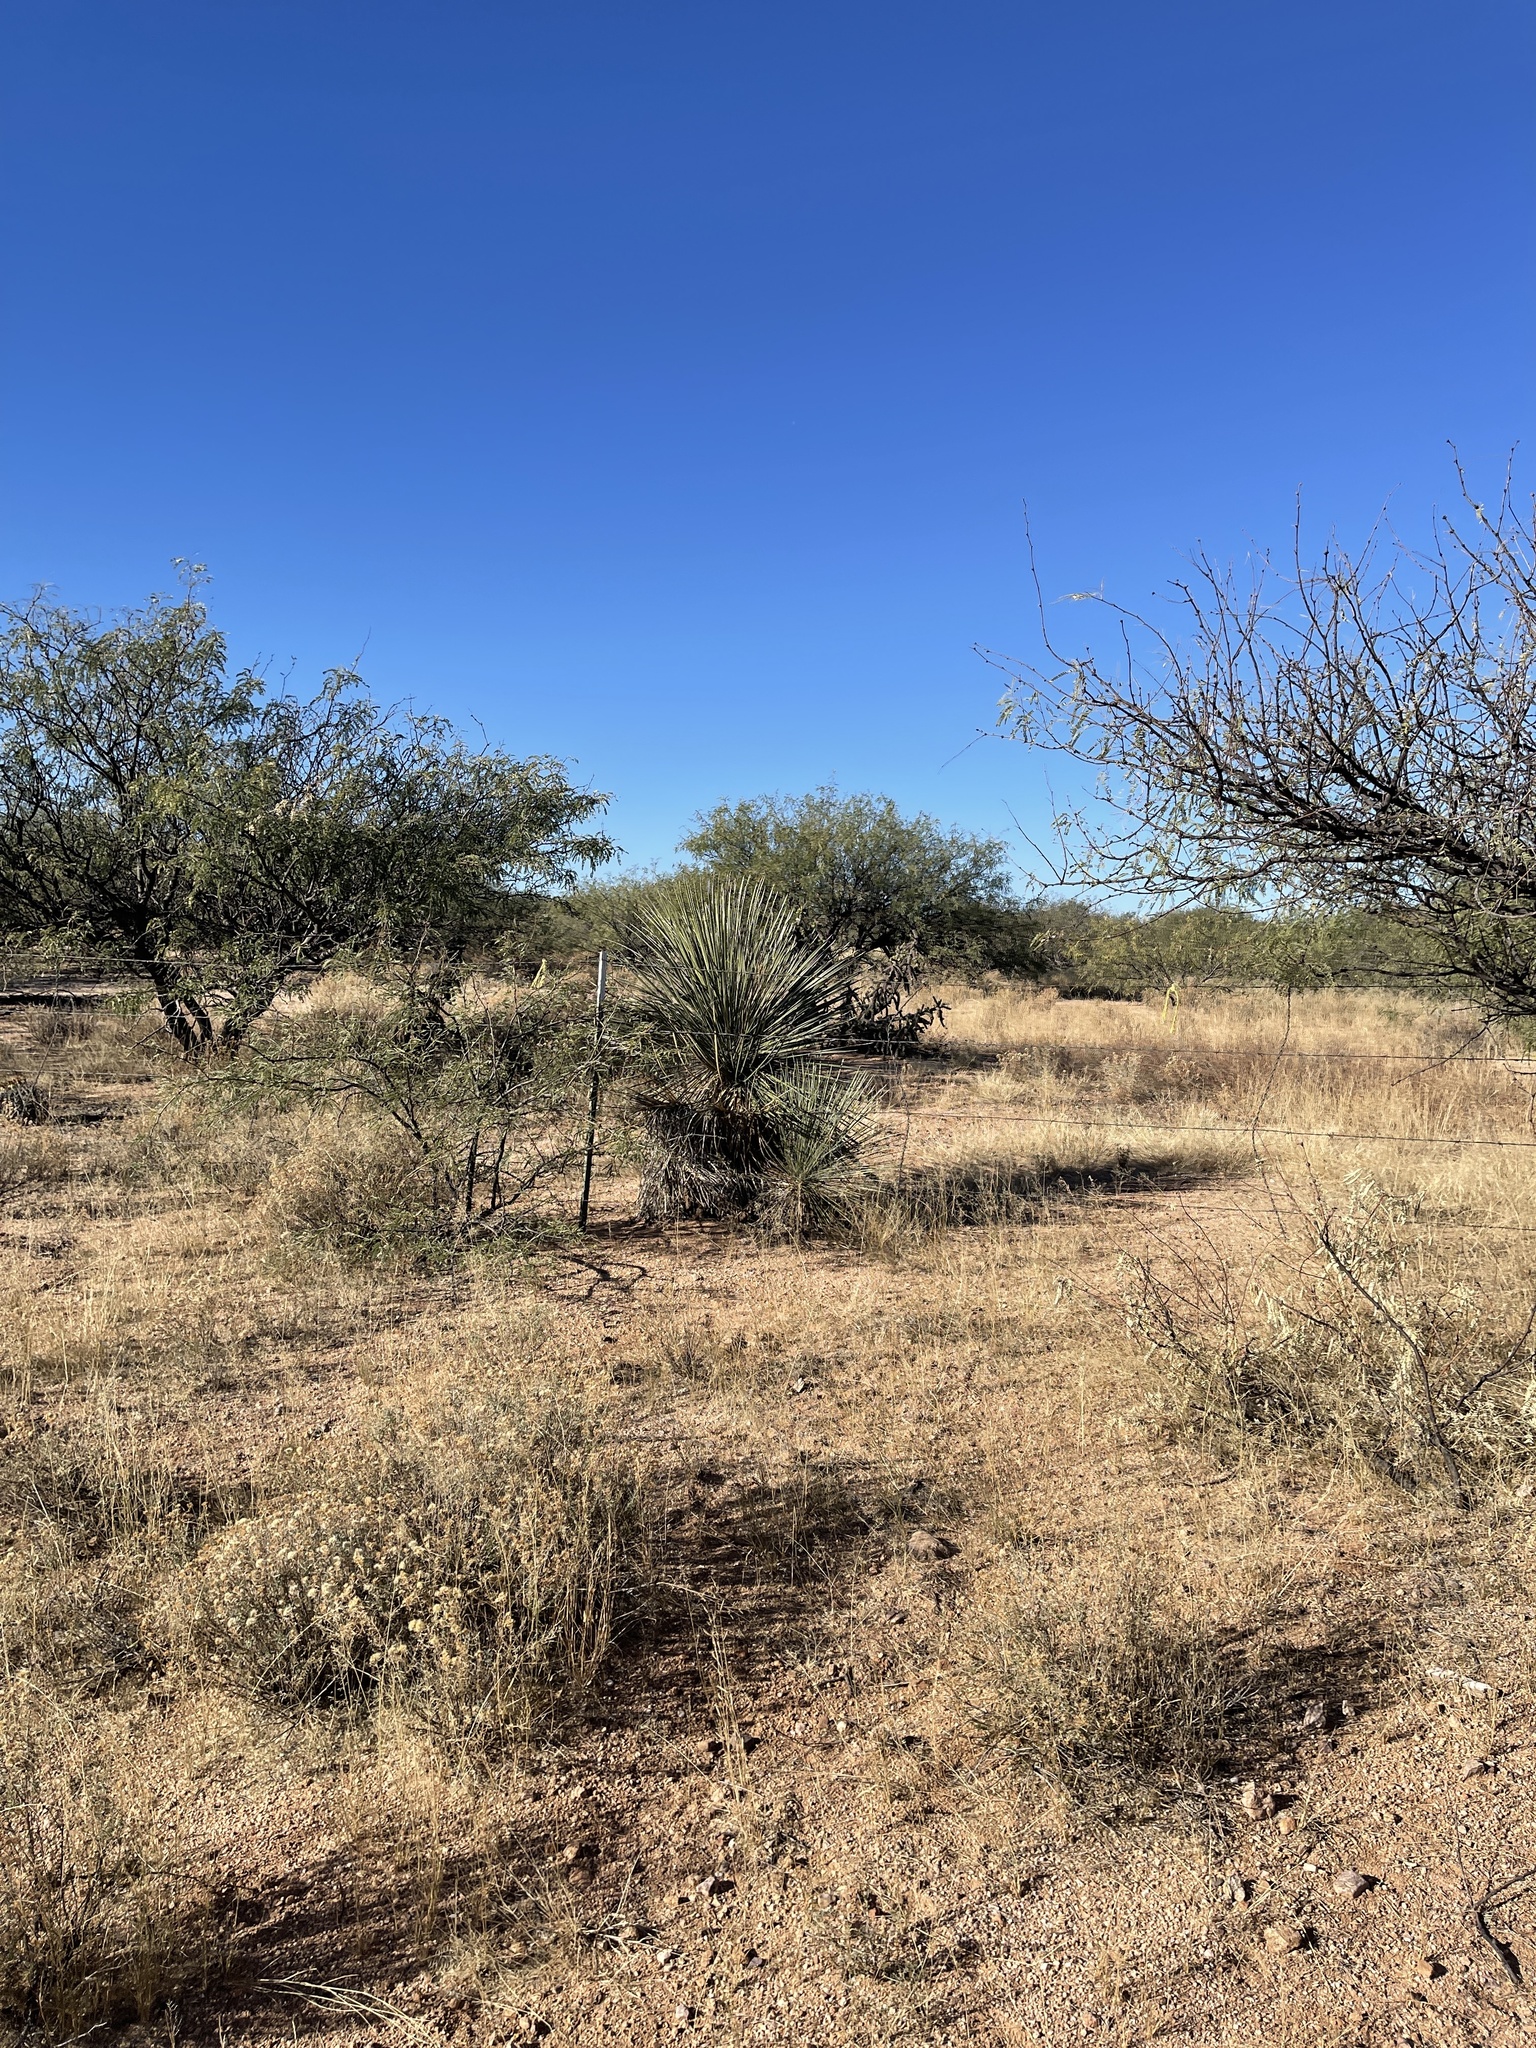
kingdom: Plantae
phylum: Tracheophyta
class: Liliopsida
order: Asparagales
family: Asparagaceae
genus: Yucca
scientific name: Yucca elata
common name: Palmella
